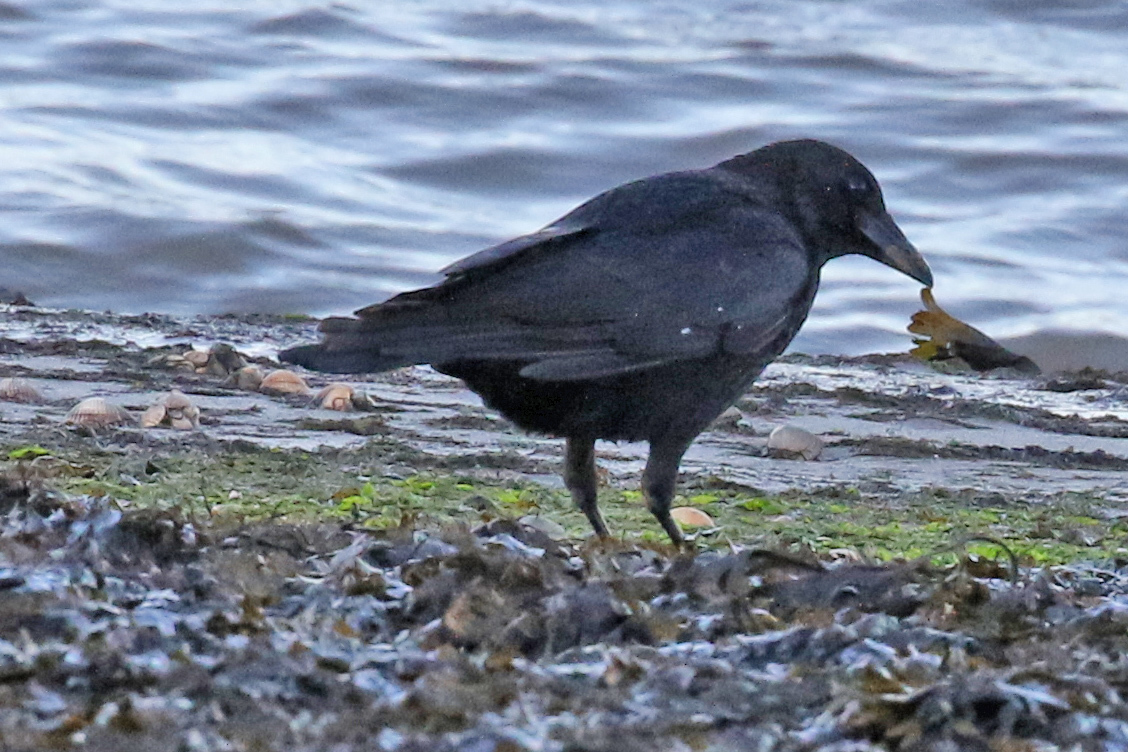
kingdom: Animalia
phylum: Chordata
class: Aves
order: Passeriformes
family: Corvidae
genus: Corvus
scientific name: Corvus corone
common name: Carrion crow
